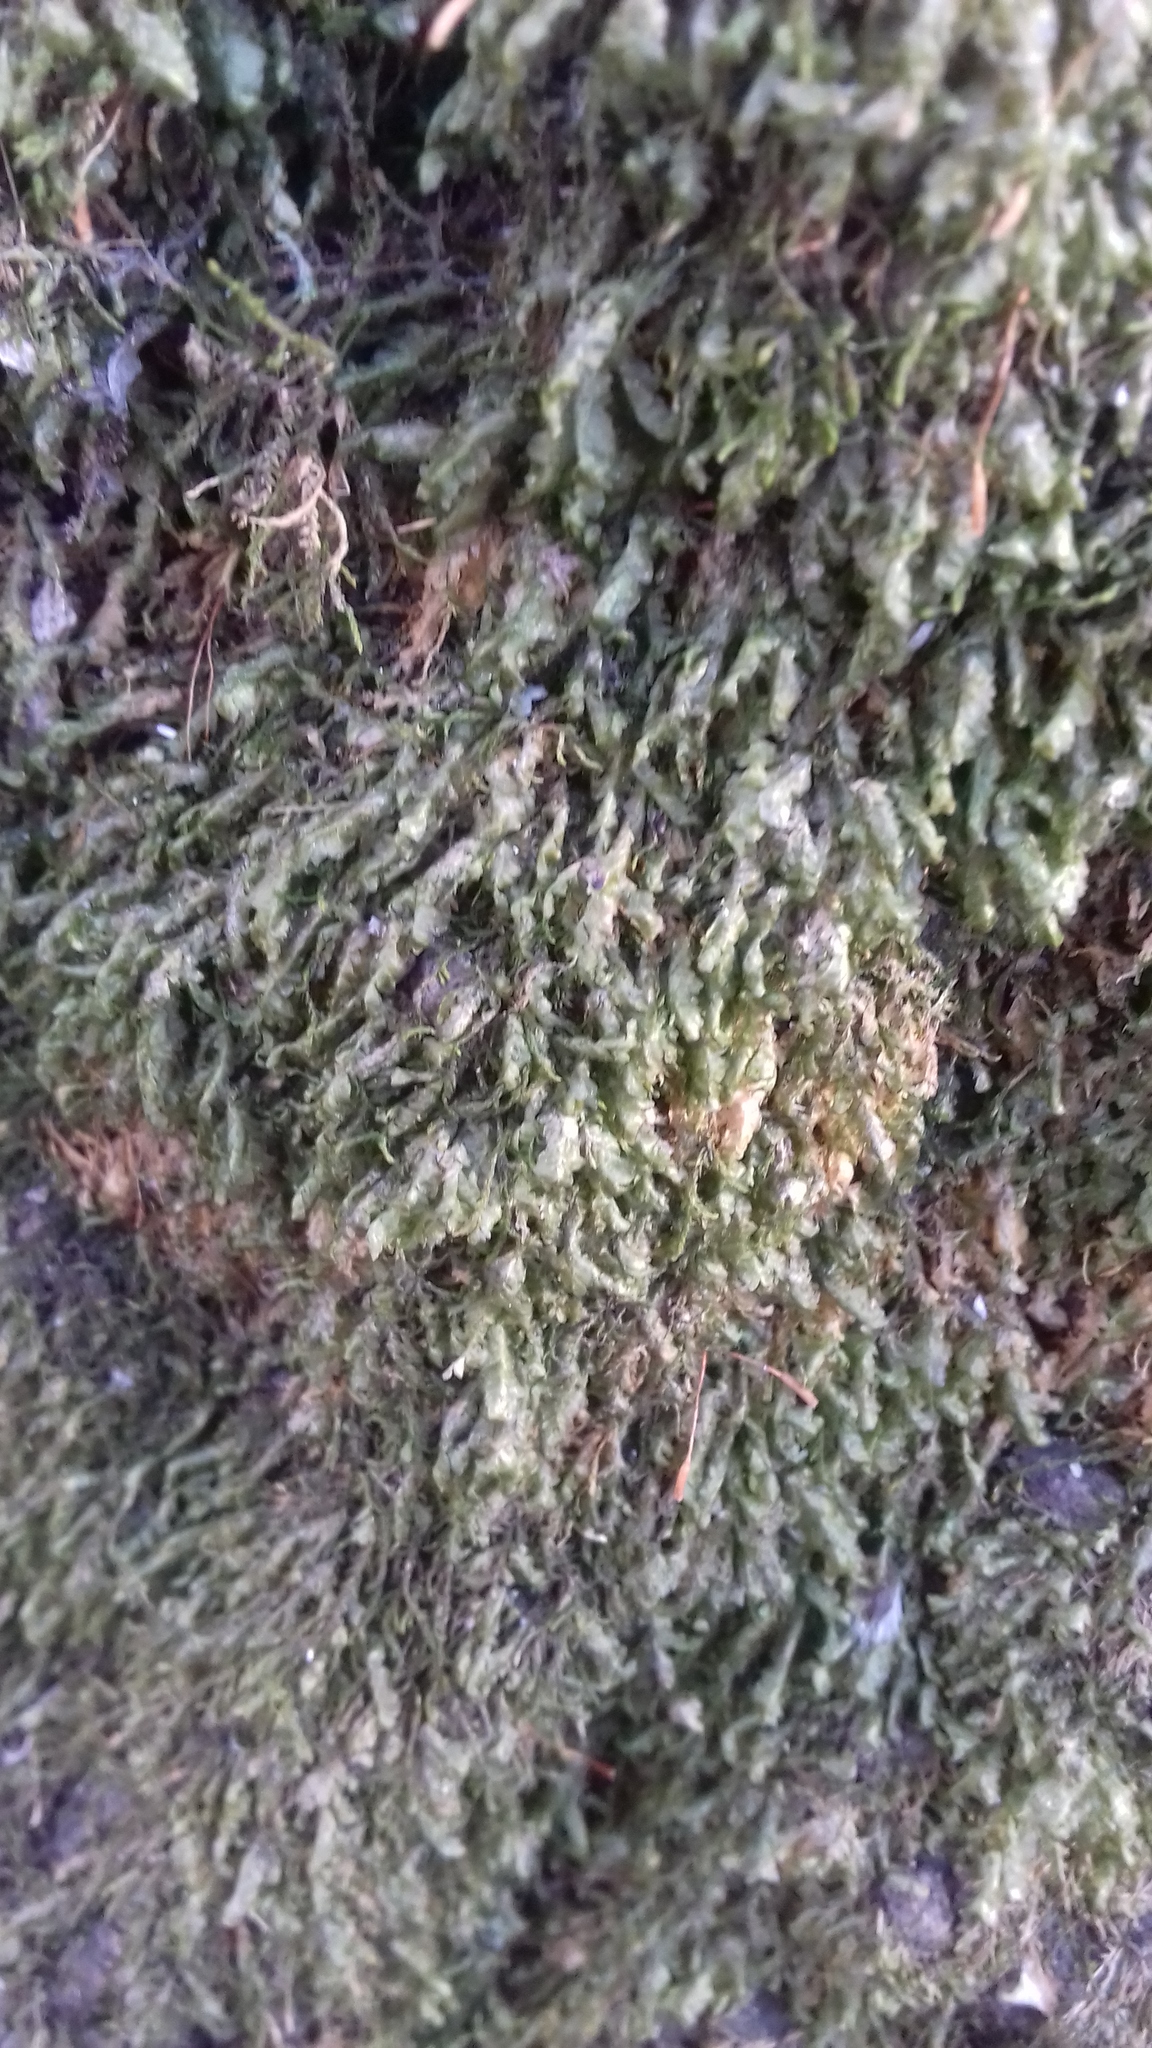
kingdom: Plantae
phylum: Bryophyta
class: Bryopsida
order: Hypnales
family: Neckeraceae
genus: Homalia
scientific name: Homalia trichomanoides
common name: Lime homalia moss
